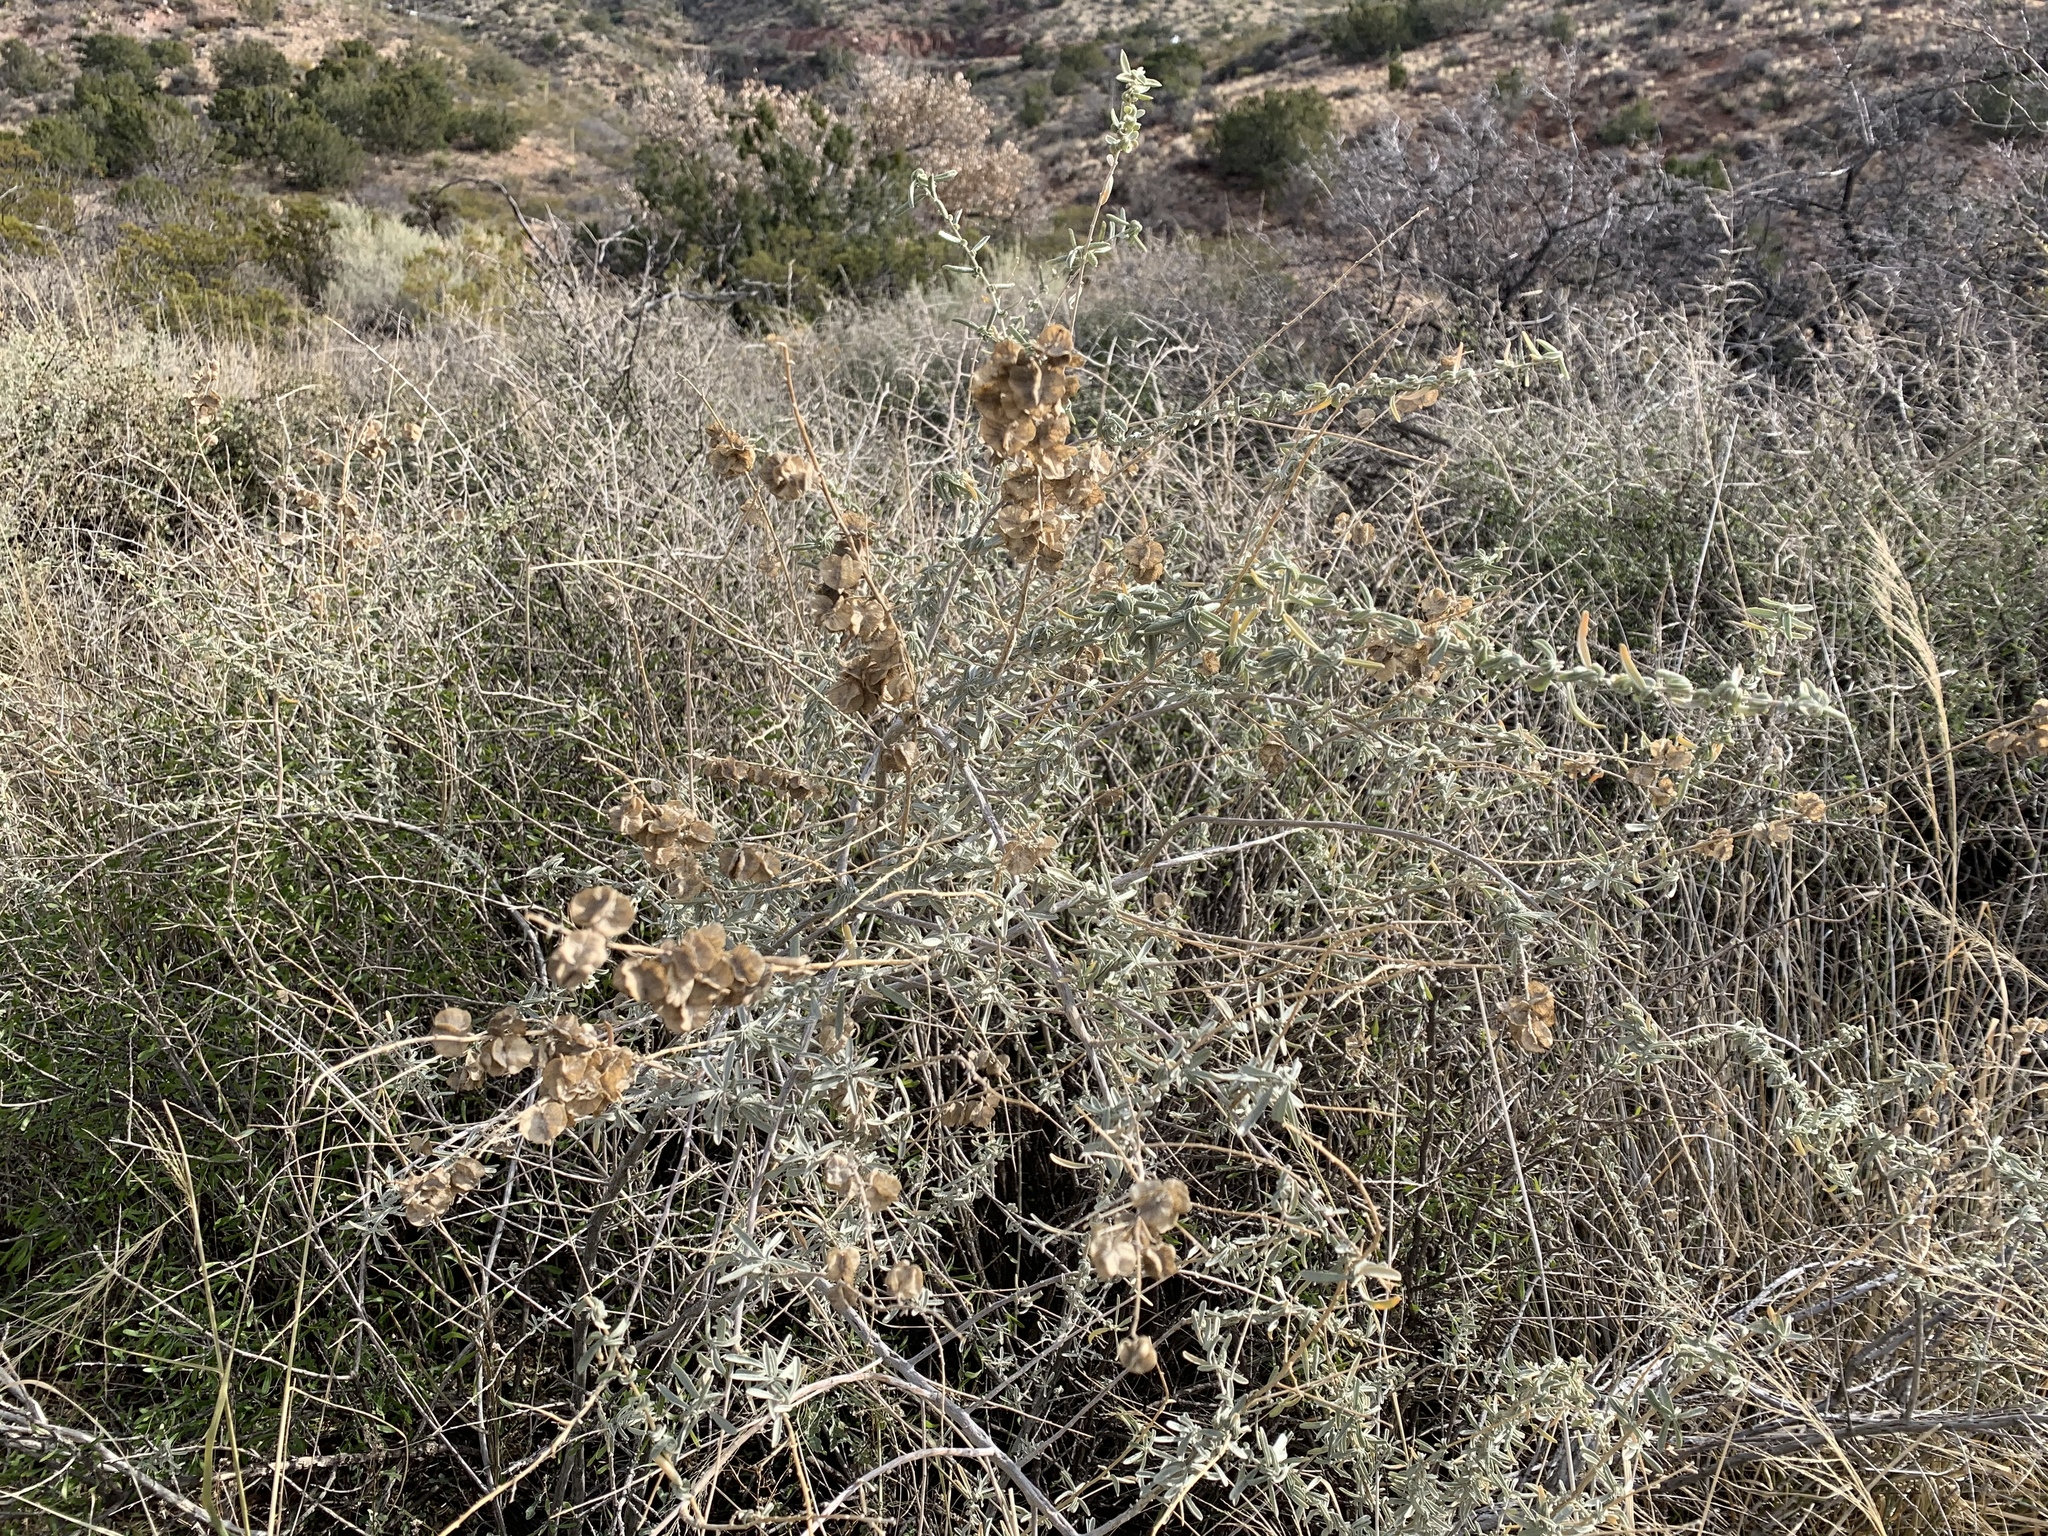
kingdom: Plantae
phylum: Tracheophyta
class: Magnoliopsida
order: Caryophyllales
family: Amaranthaceae
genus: Atriplex
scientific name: Atriplex canescens
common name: Four-wing saltbush
